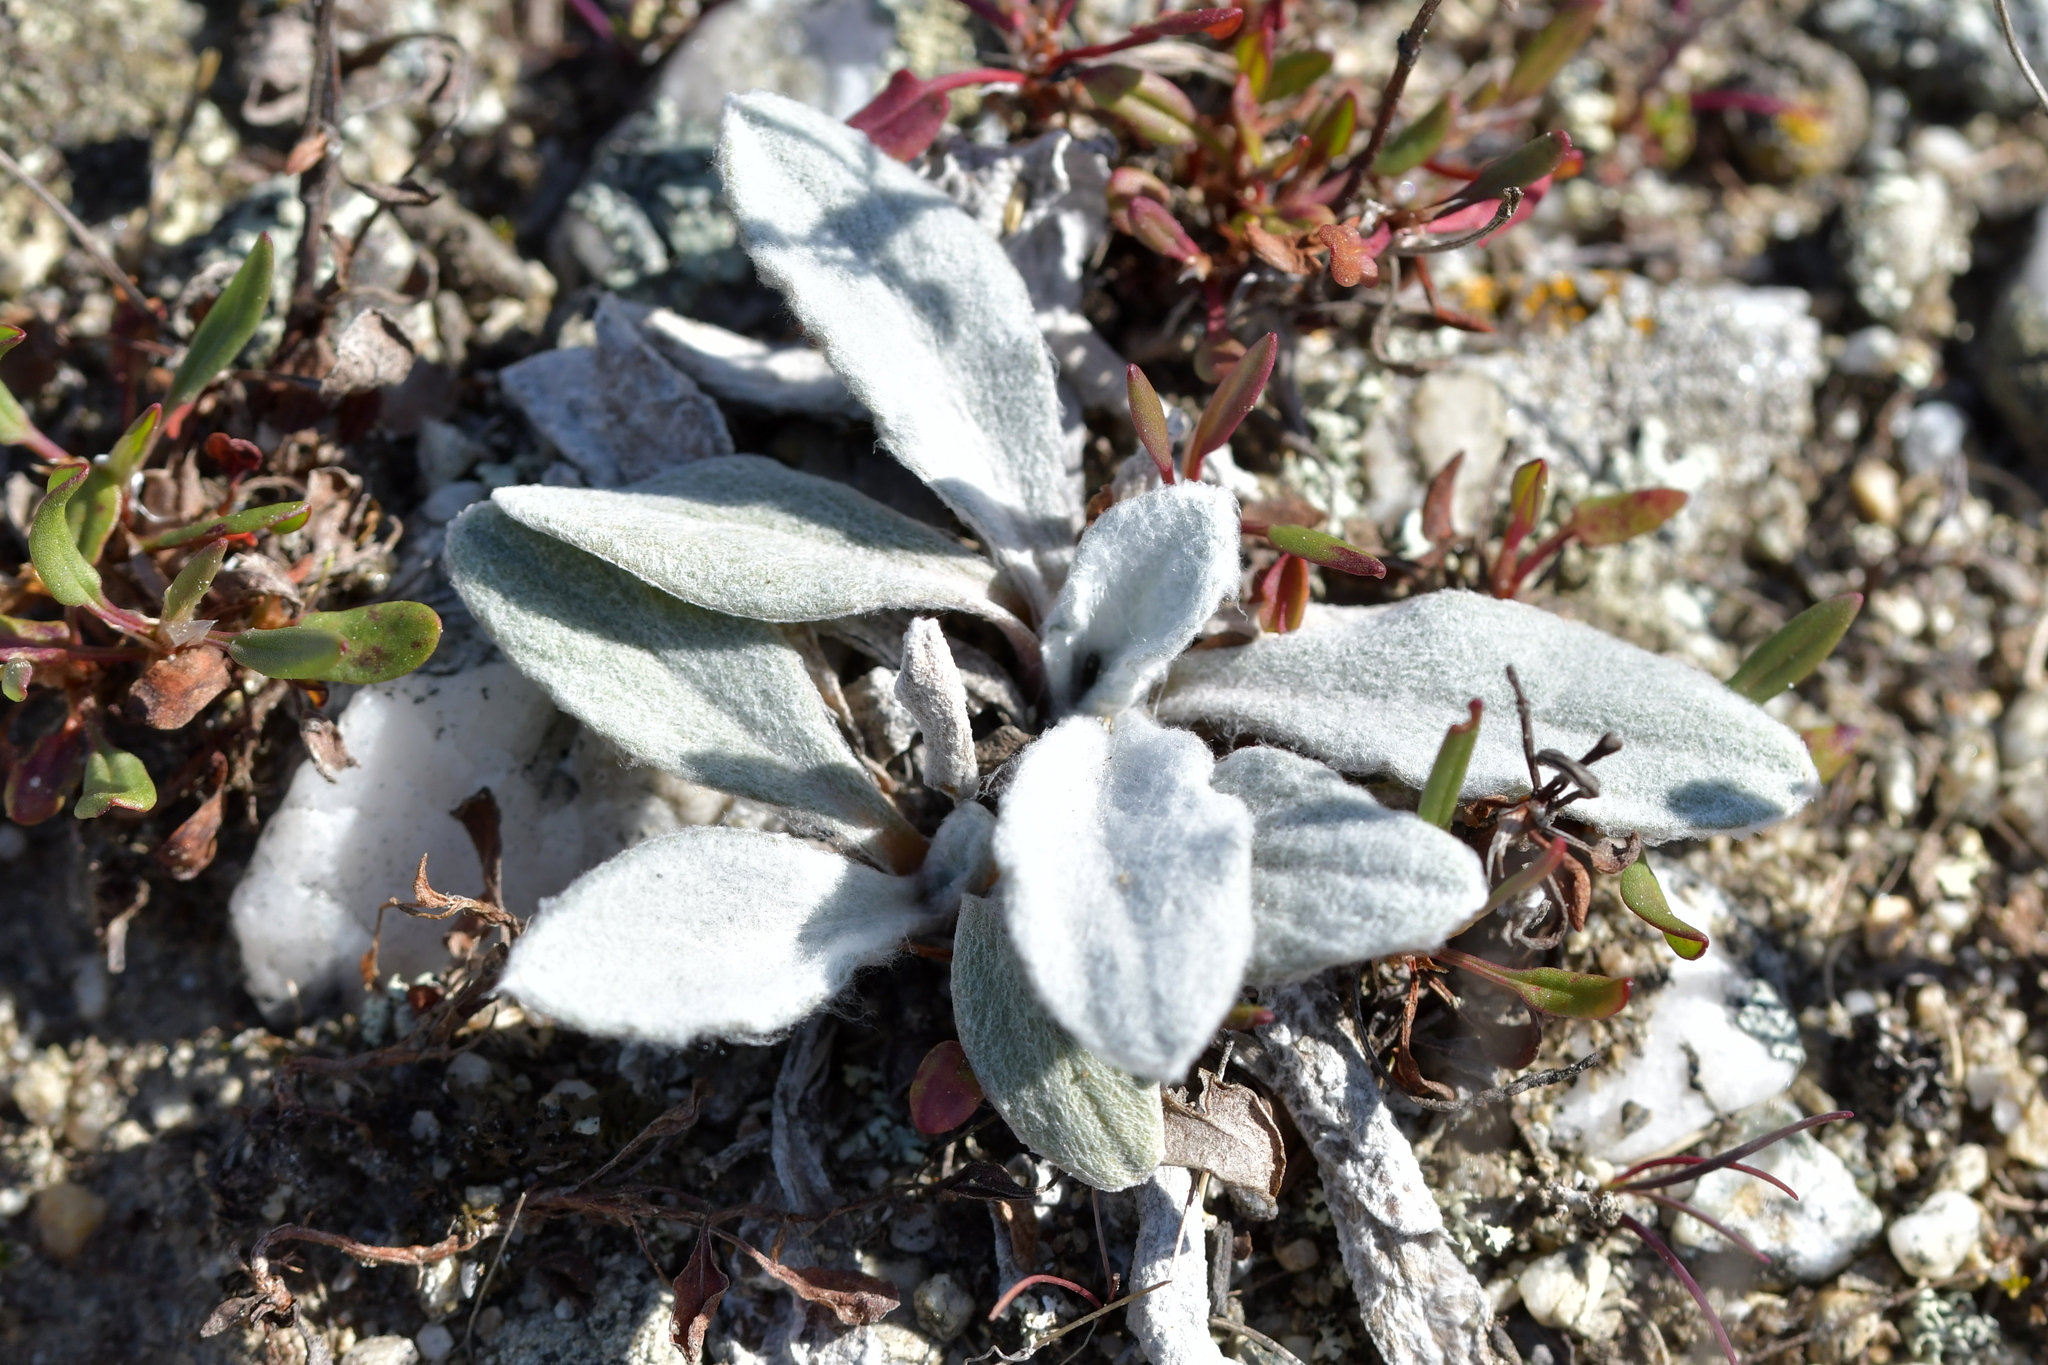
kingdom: Plantae
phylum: Tracheophyta
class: Magnoliopsida
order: Asterales
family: Asteraceae
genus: Craspedia
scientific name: Craspedia
